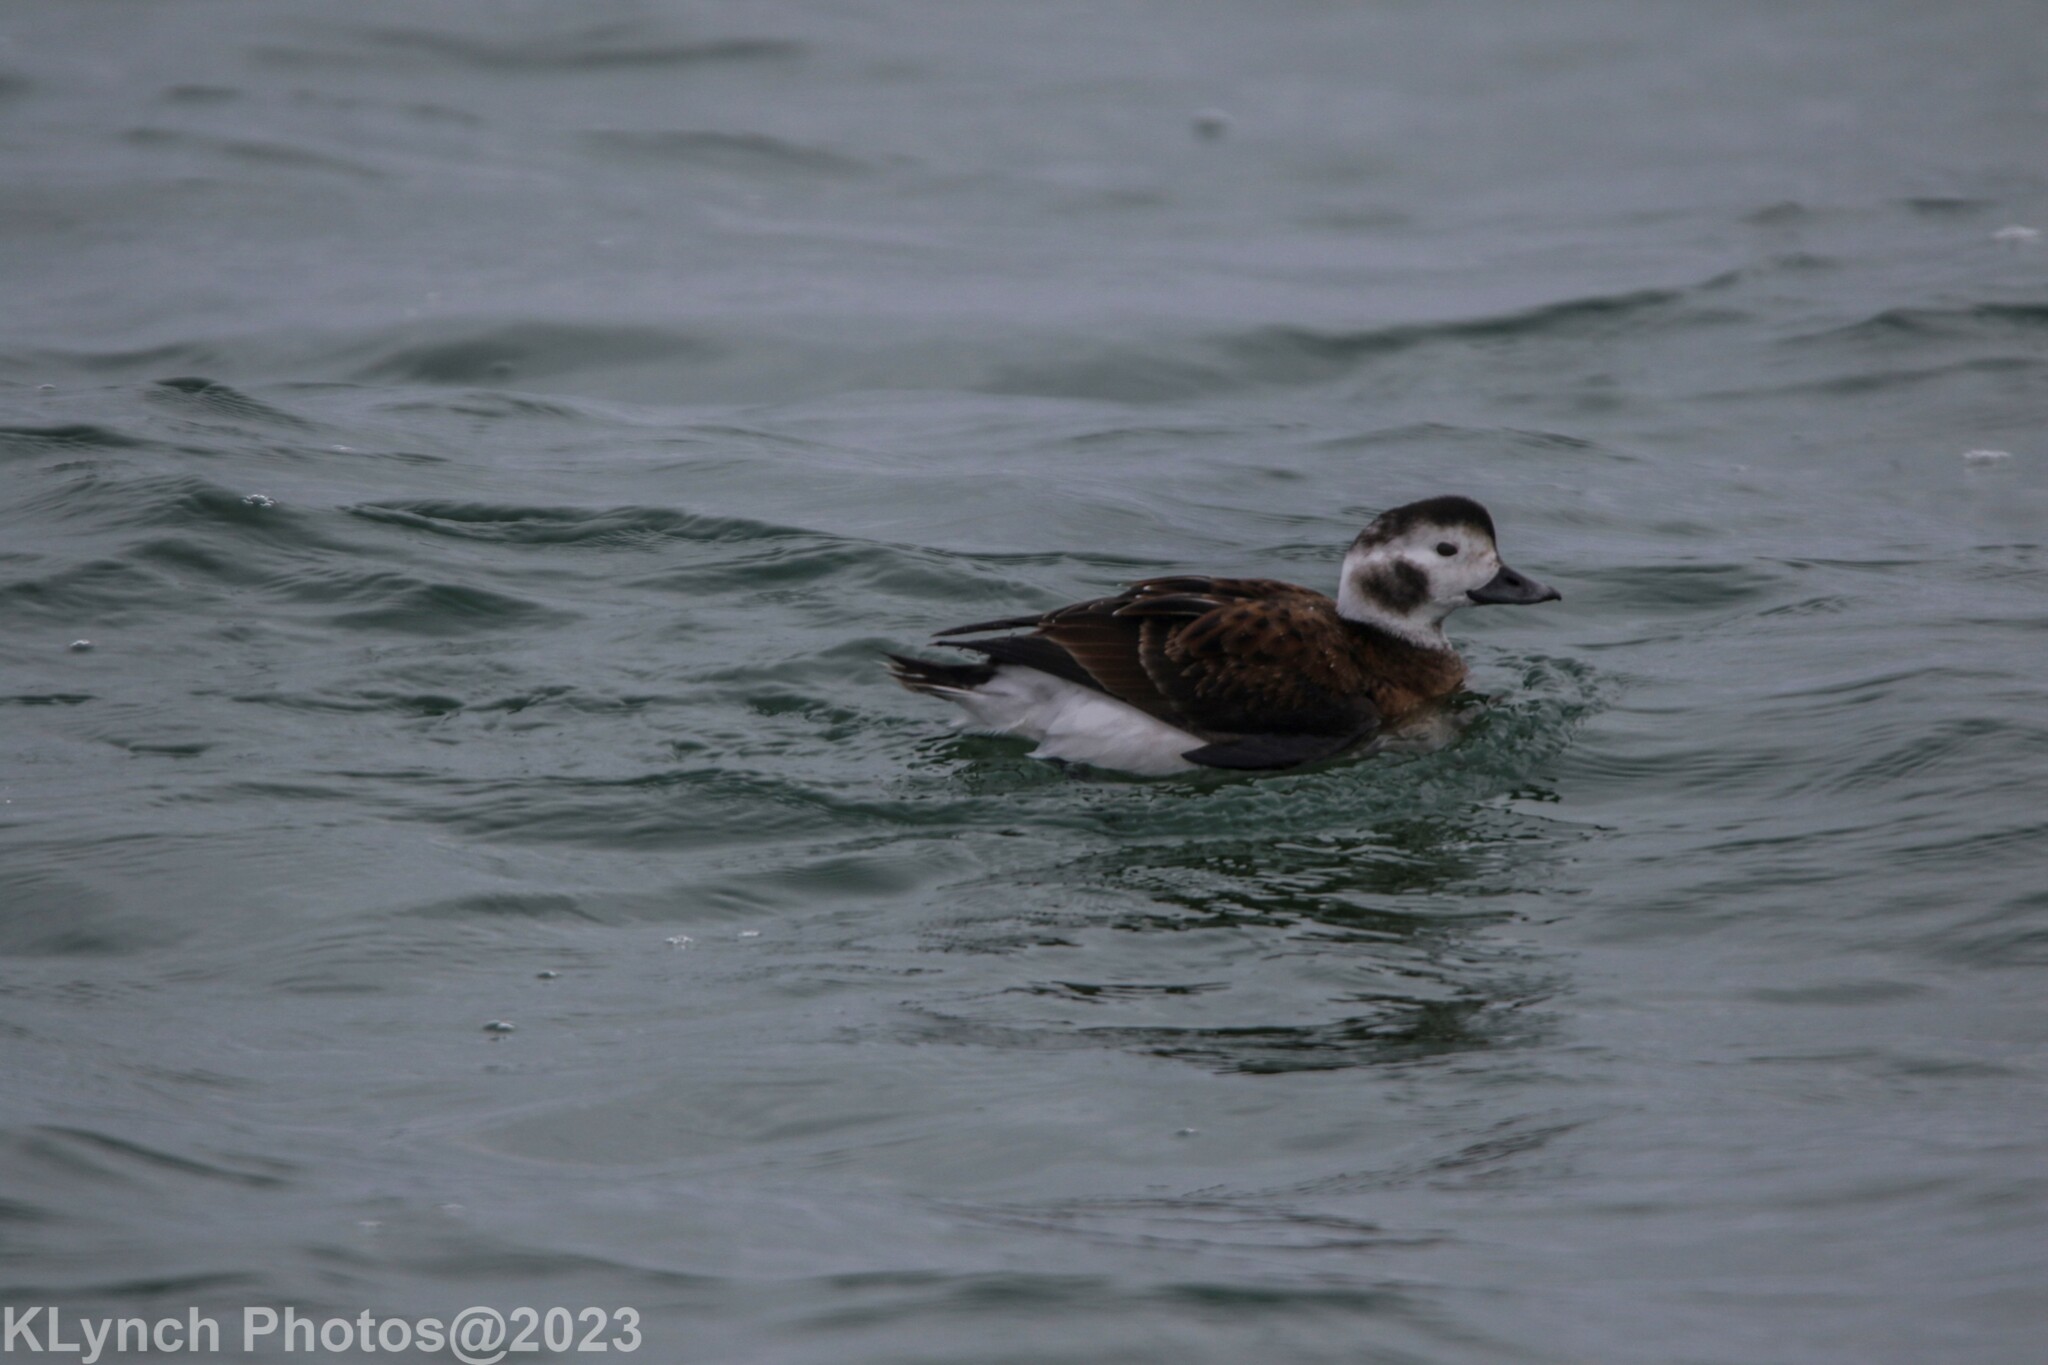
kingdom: Animalia
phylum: Chordata
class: Aves
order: Anseriformes
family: Anatidae
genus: Clangula
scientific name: Clangula hyemalis
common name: Long-tailed duck
